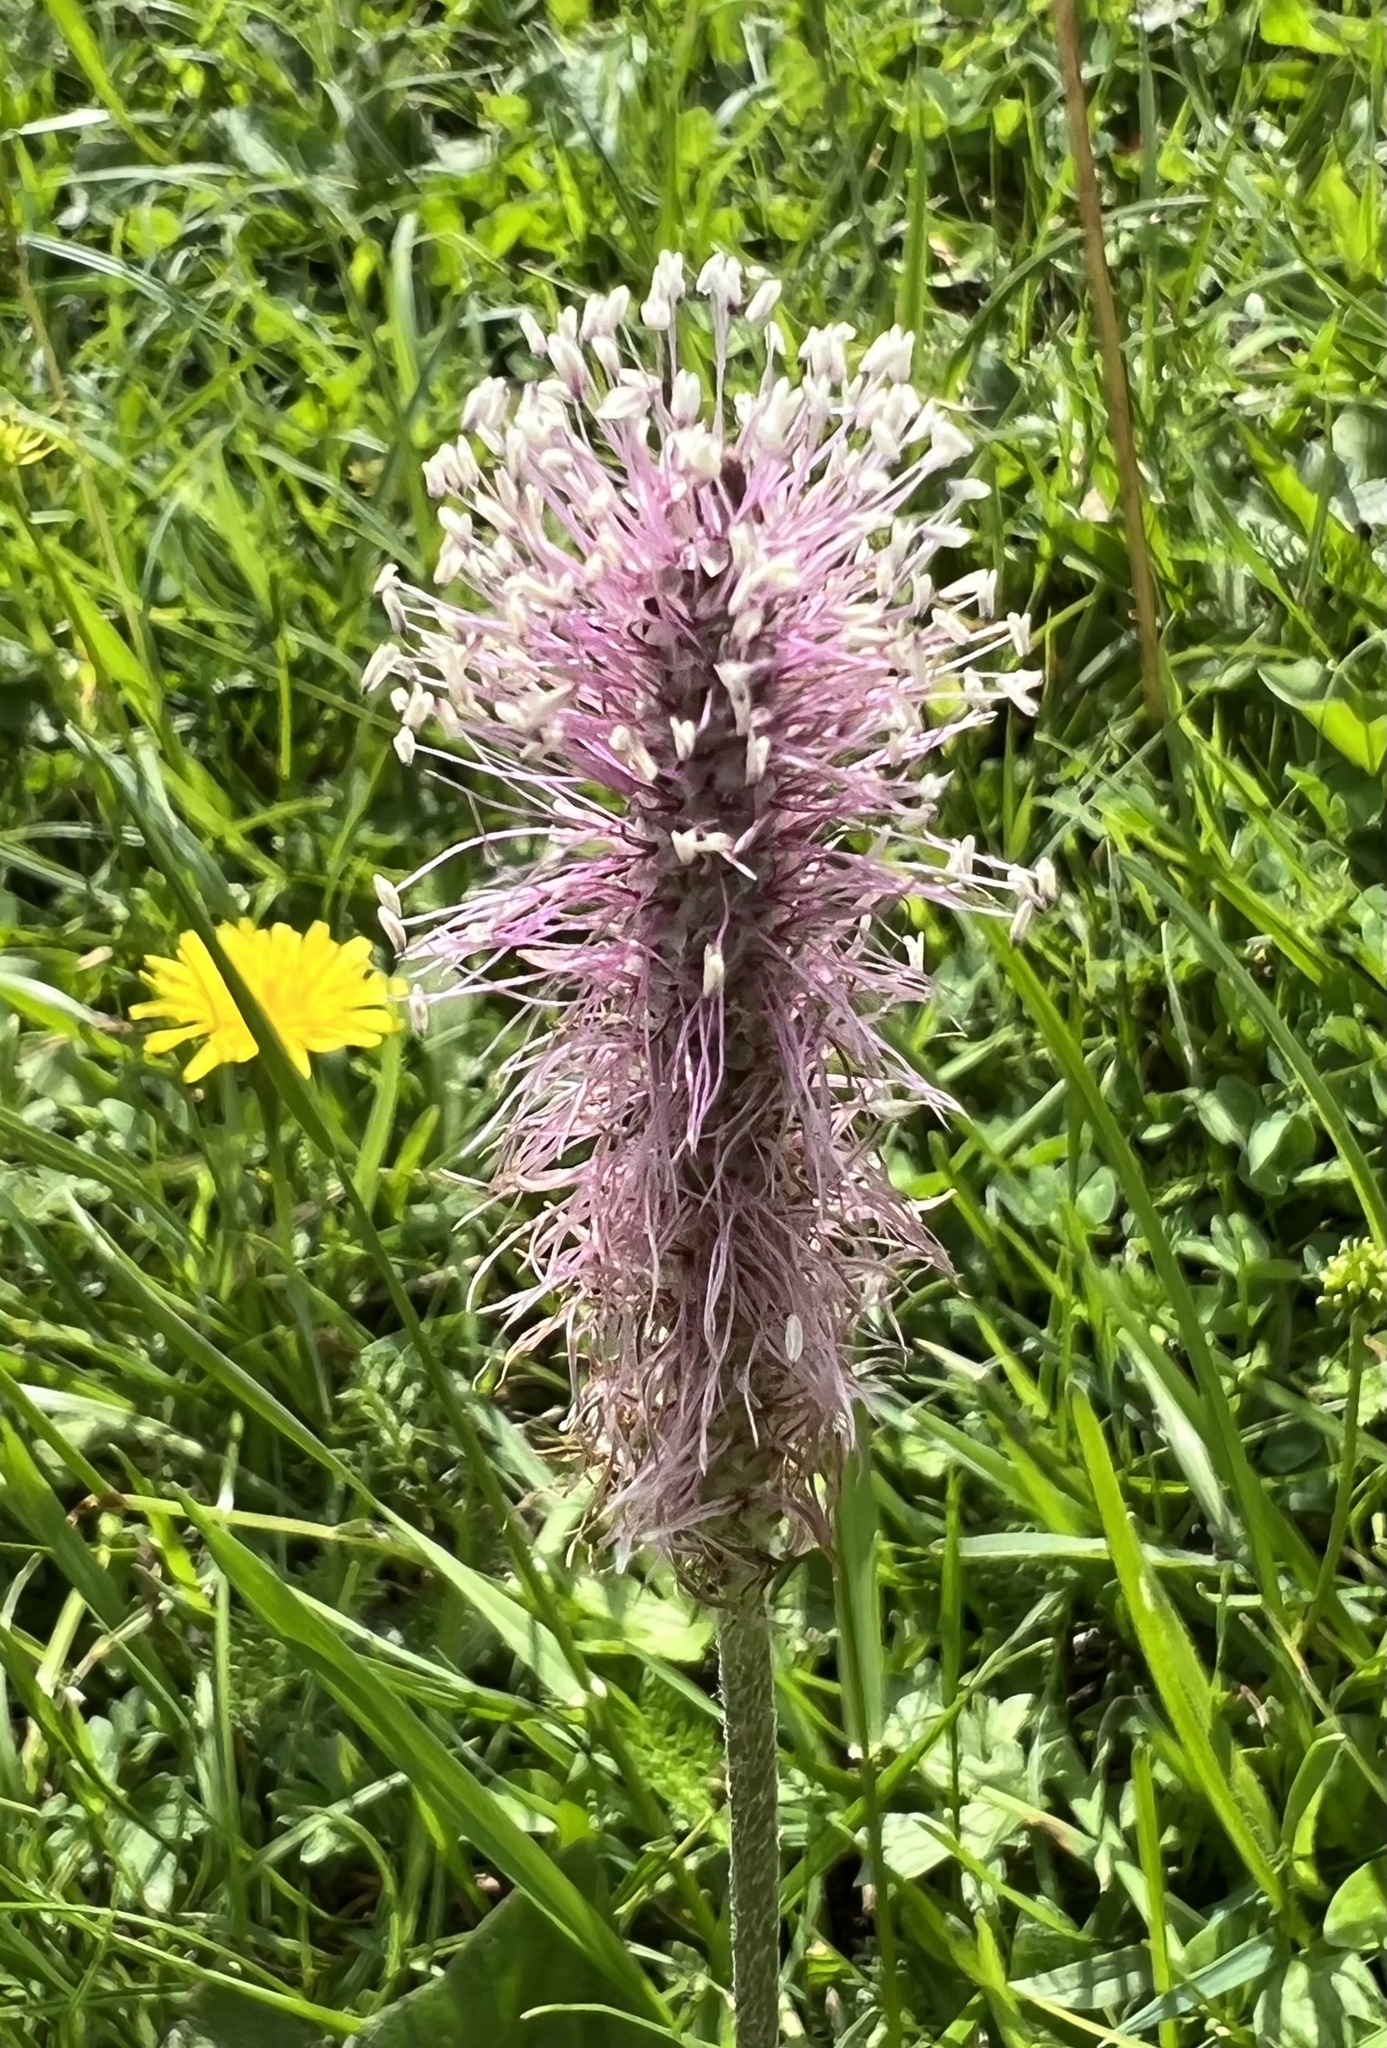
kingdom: Plantae
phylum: Tracheophyta
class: Magnoliopsida
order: Lamiales
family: Plantaginaceae
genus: Plantago
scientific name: Plantago media
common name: Hoary plantain
